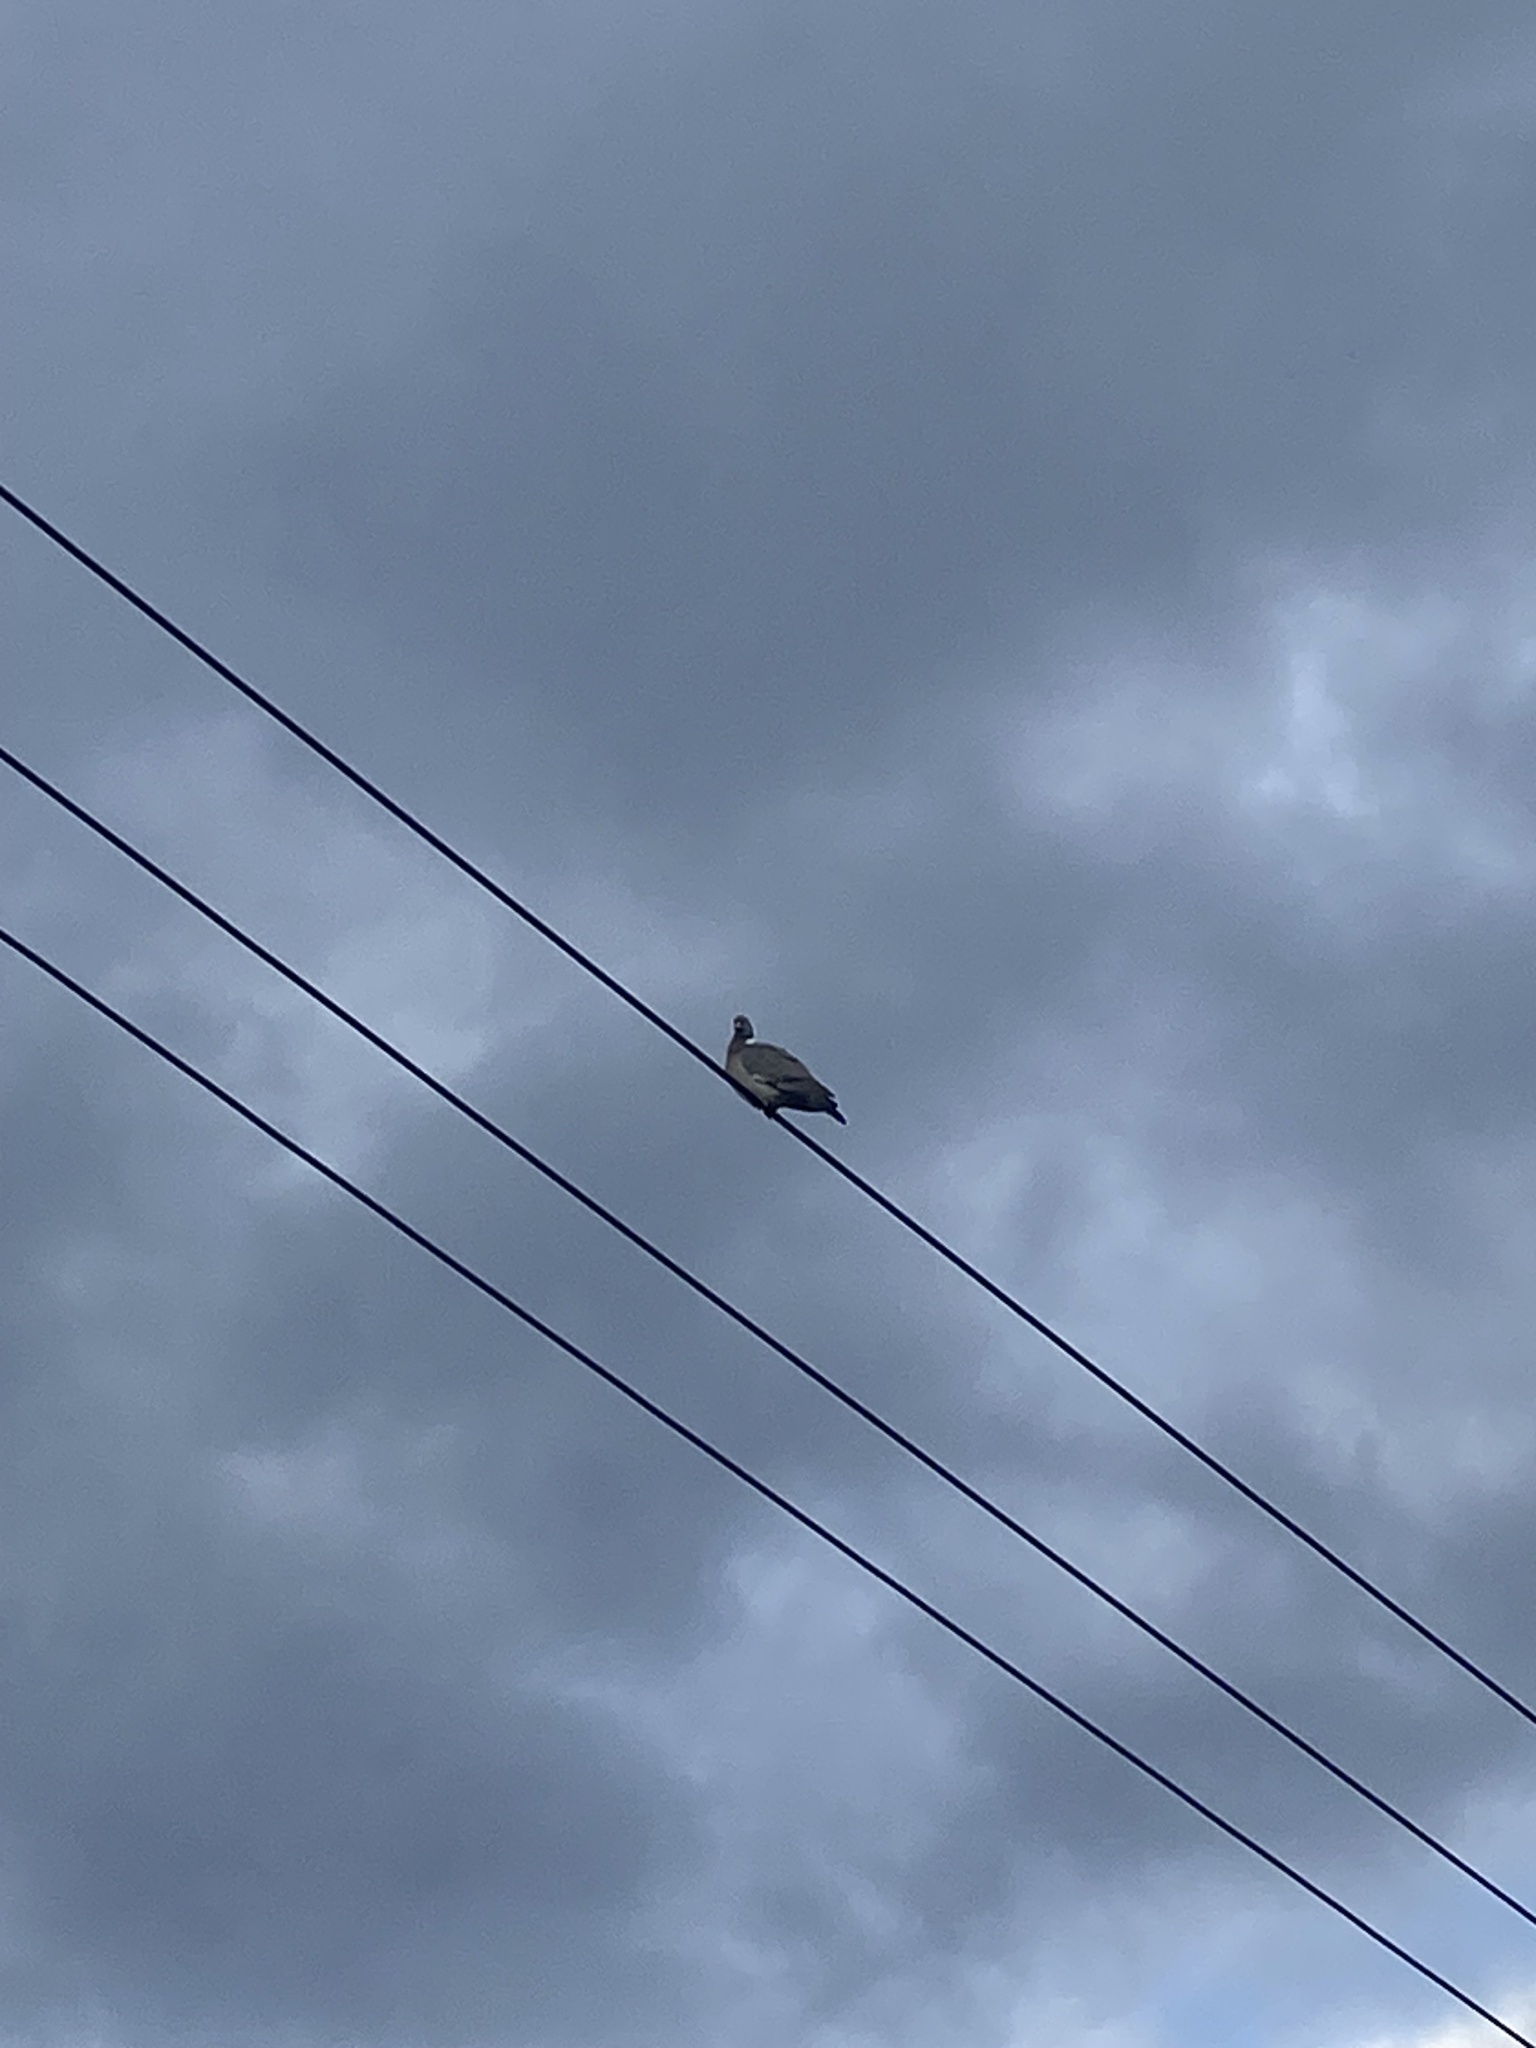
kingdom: Animalia
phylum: Chordata
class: Aves
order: Columbiformes
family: Columbidae
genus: Columba
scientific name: Columba palumbus
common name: Common wood pigeon
